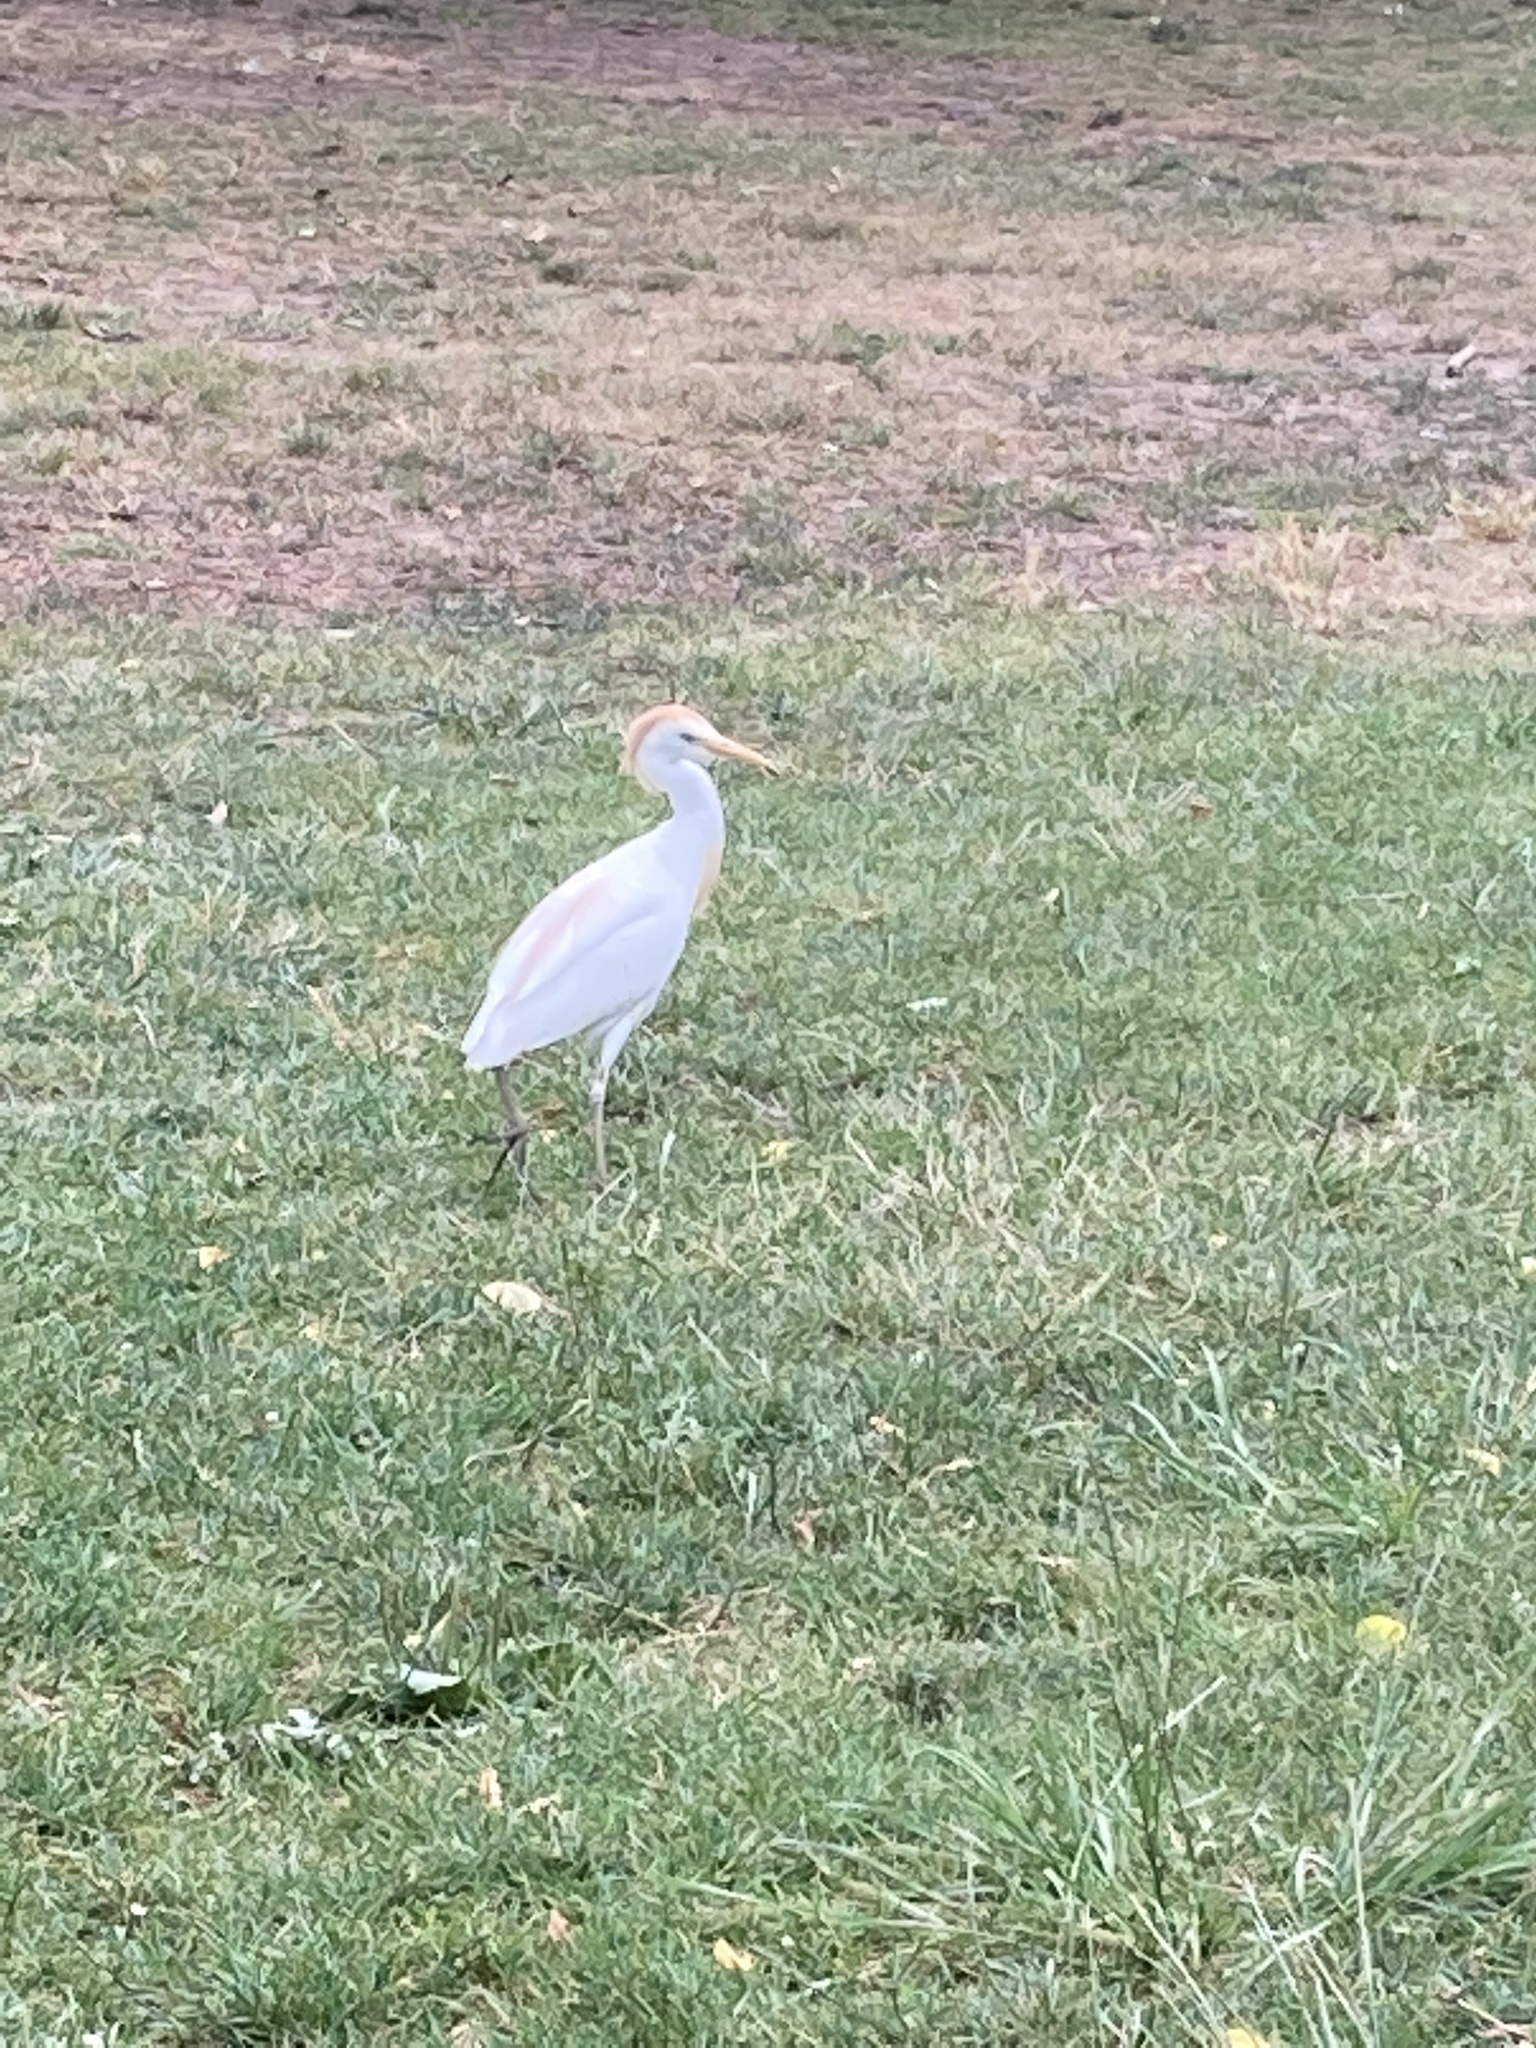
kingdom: Animalia
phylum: Chordata
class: Aves
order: Pelecaniformes
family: Ardeidae
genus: Bubulcus
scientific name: Bubulcus ibis
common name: Cattle egret
